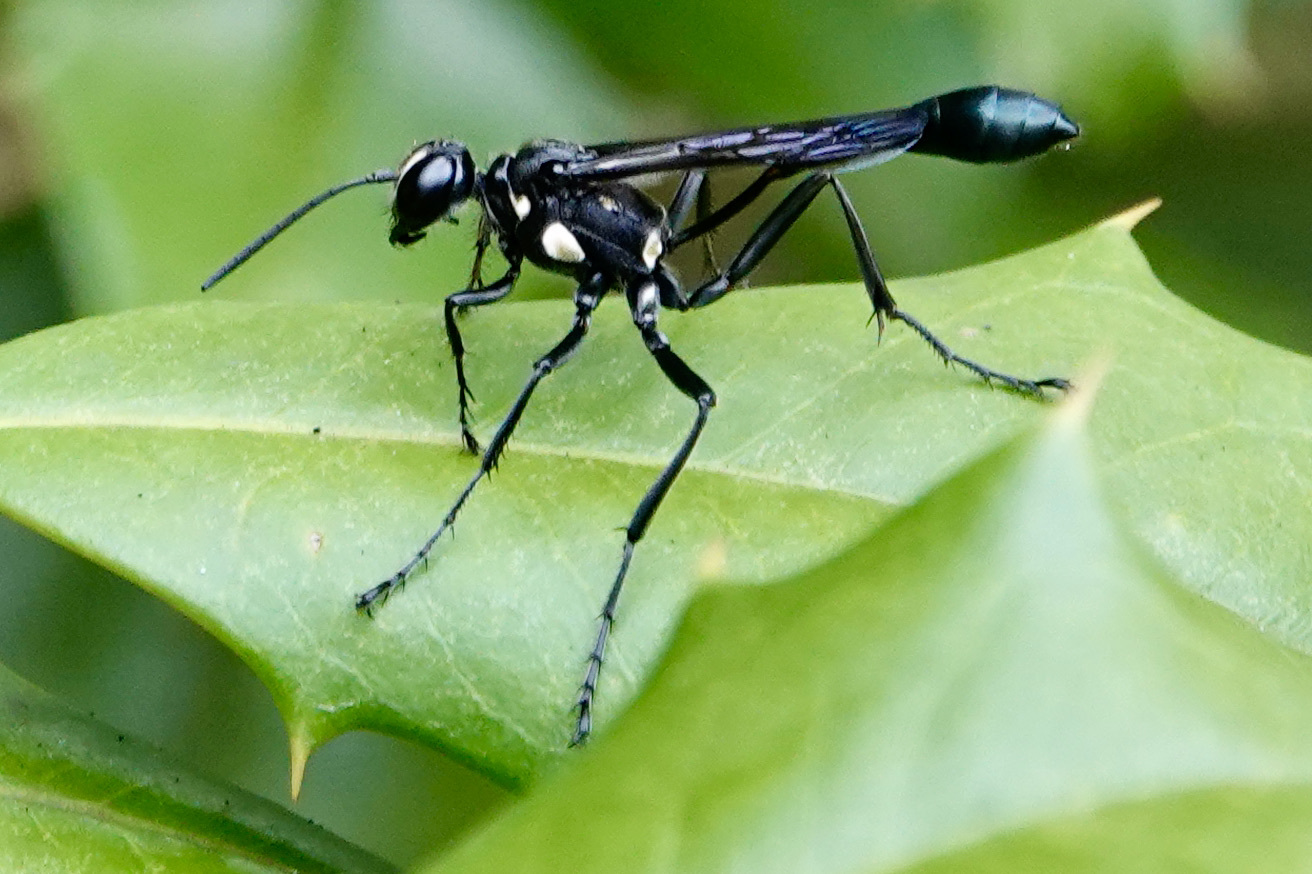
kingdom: Animalia
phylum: Arthropoda
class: Insecta
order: Hymenoptera
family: Sphecidae
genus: Eremnophila
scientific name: Eremnophila aureonotata
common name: Gold-marked thread-waisted wasp
